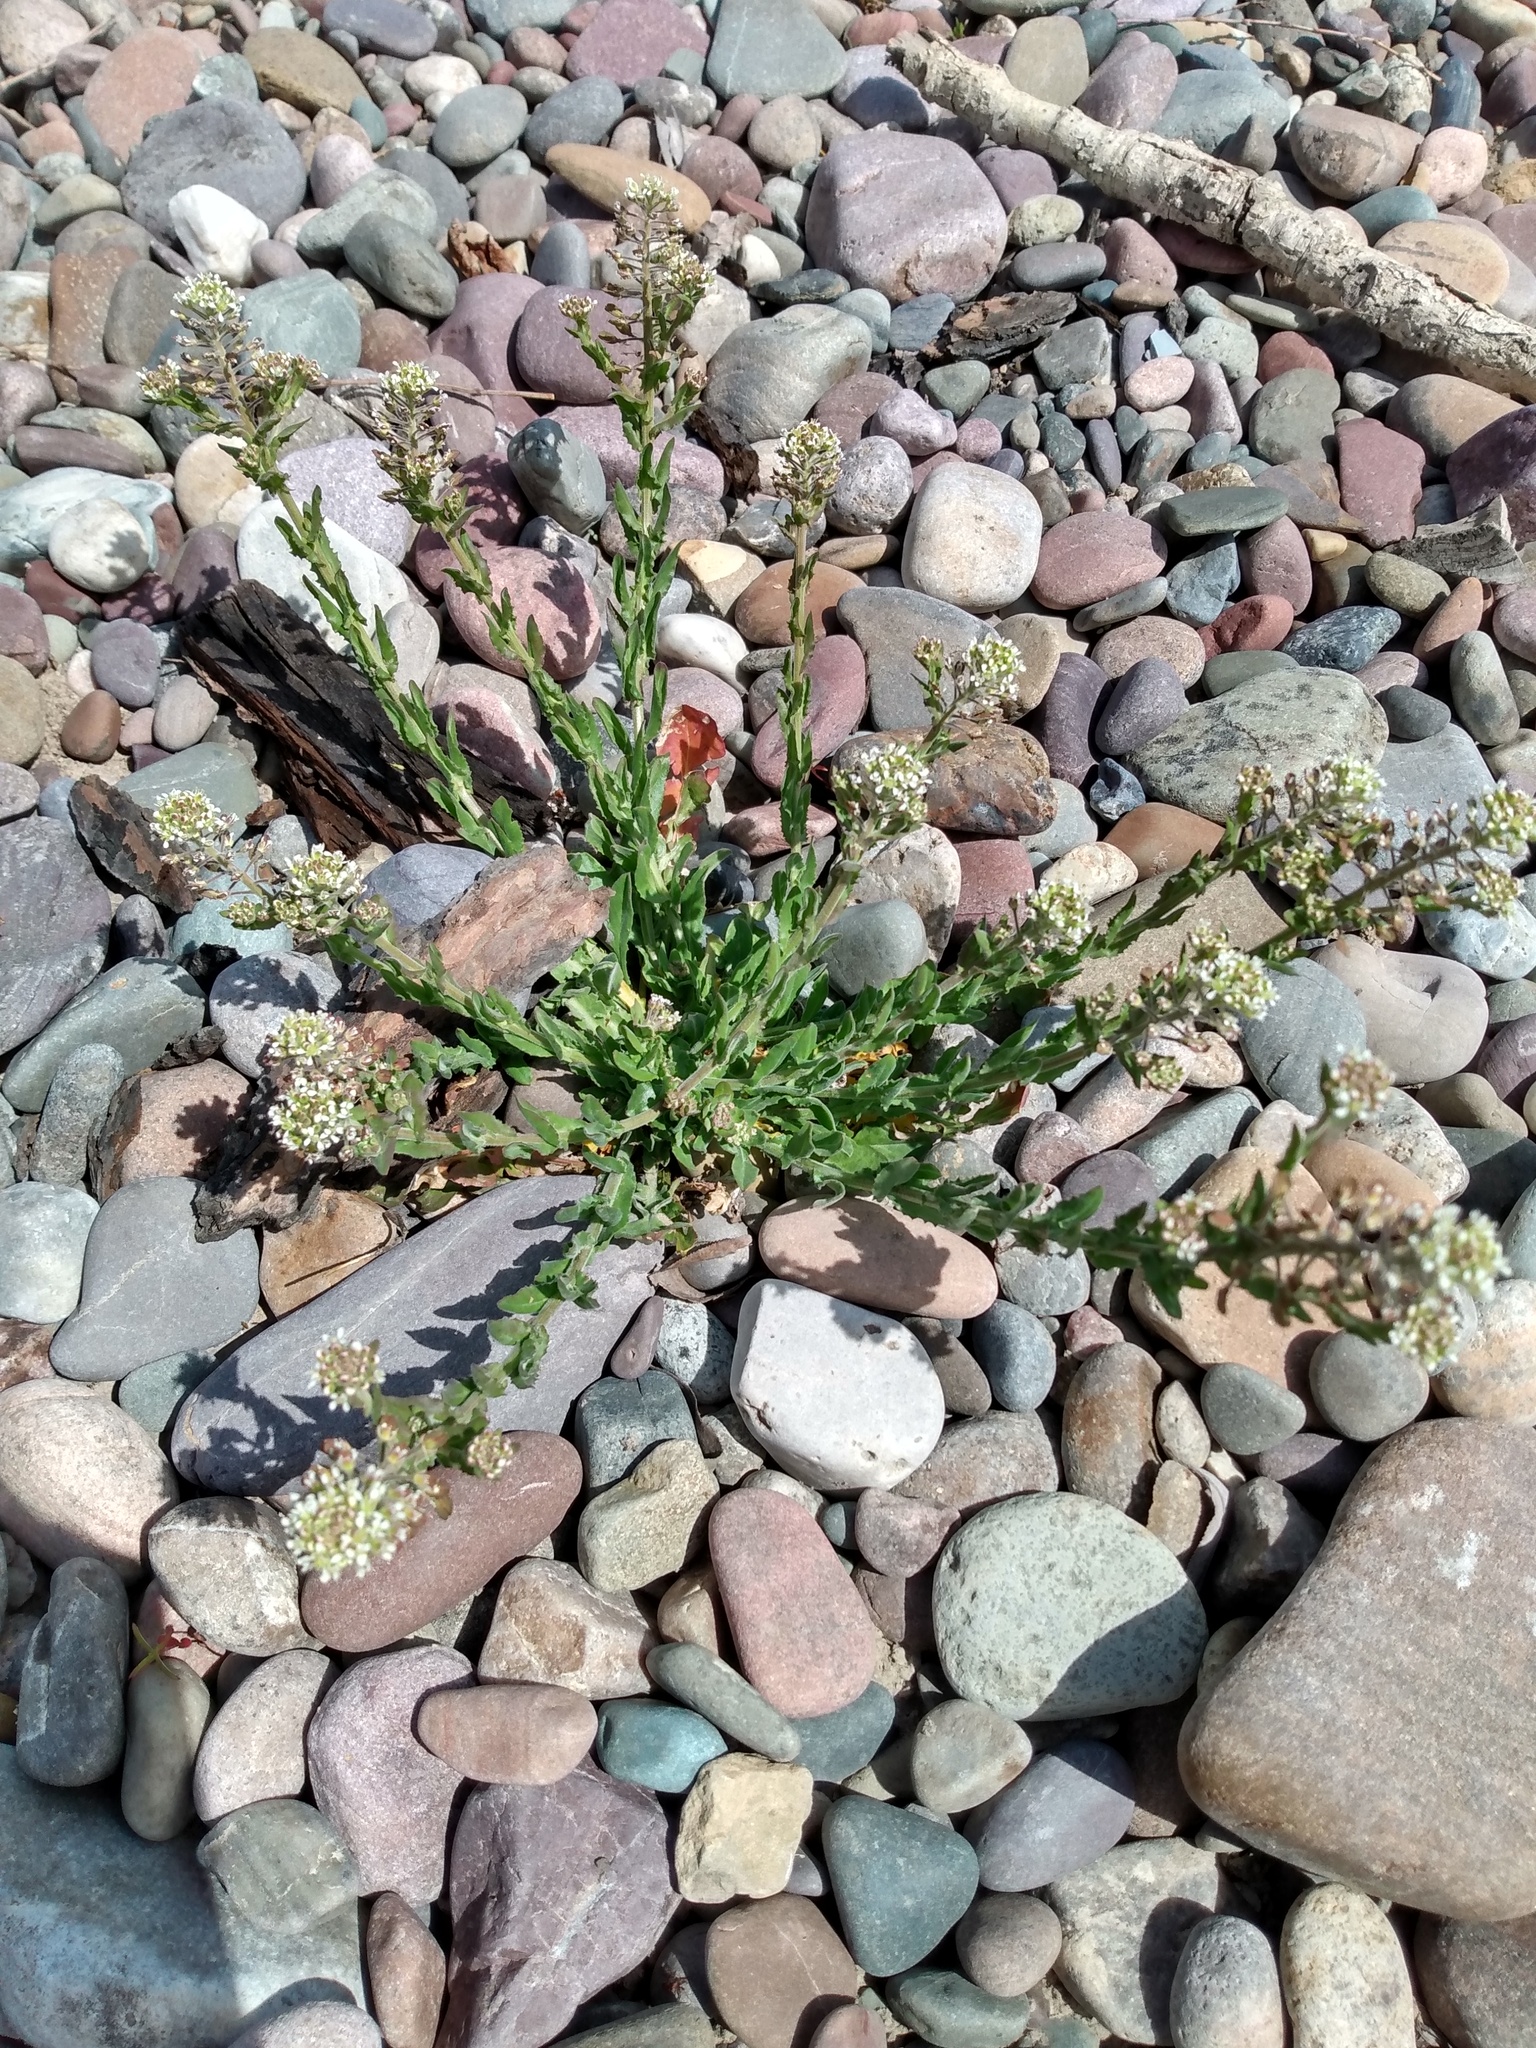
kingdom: Plantae
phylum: Tracheophyta
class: Magnoliopsida
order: Brassicales
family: Brassicaceae
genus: Lepidium
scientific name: Lepidium campestre
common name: Field pepperwort
